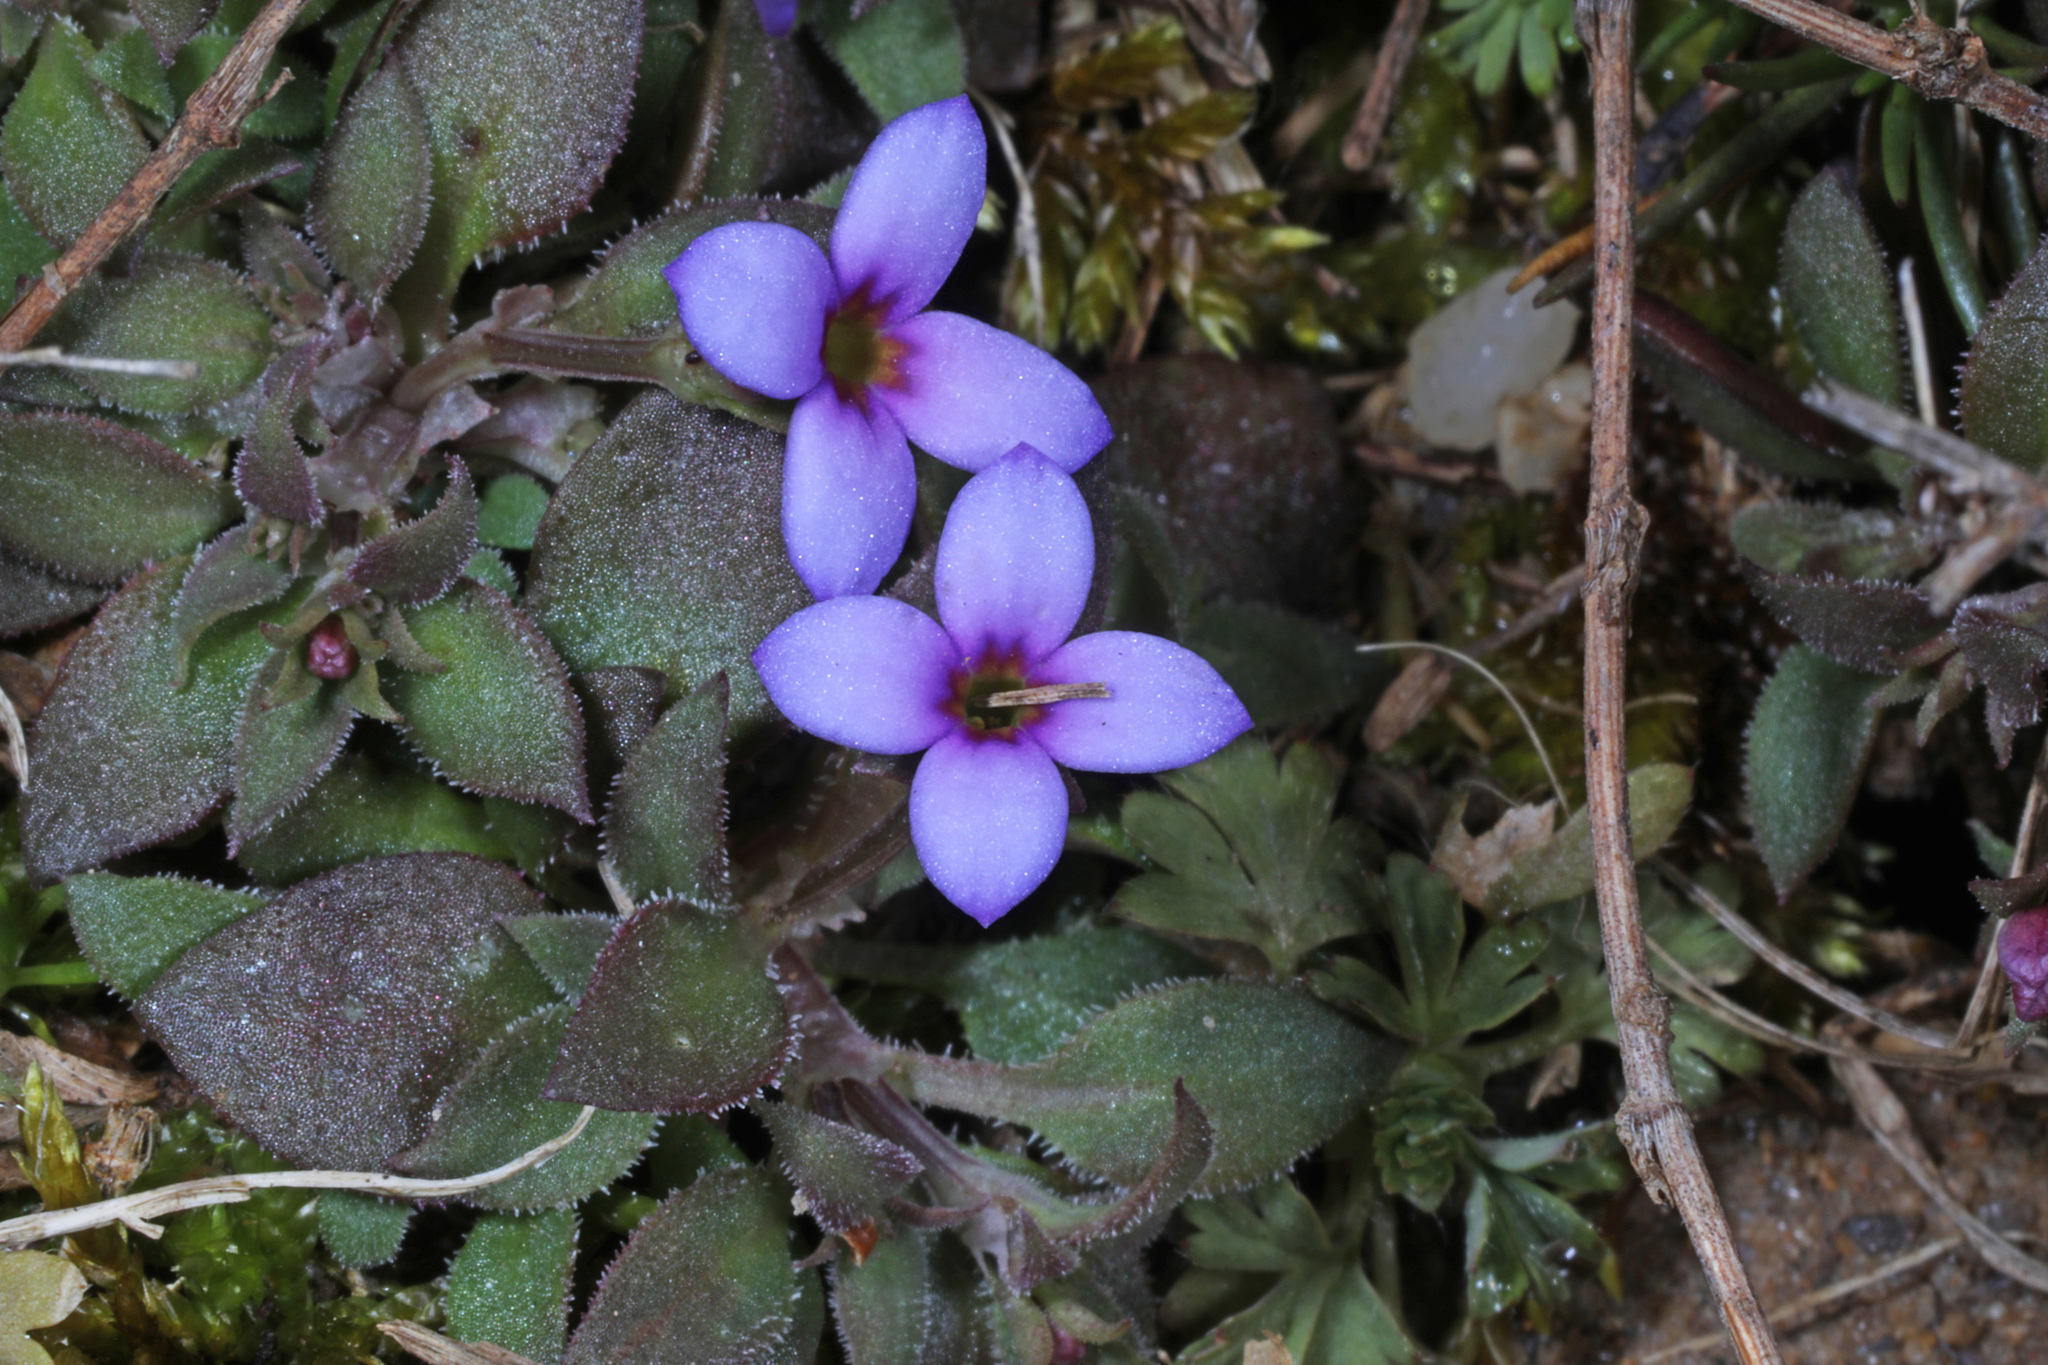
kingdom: Plantae
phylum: Tracheophyta
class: Magnoliopsida
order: Gentianales
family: Rubiaceae
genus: Houstonia
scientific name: Houstonia pusilla
